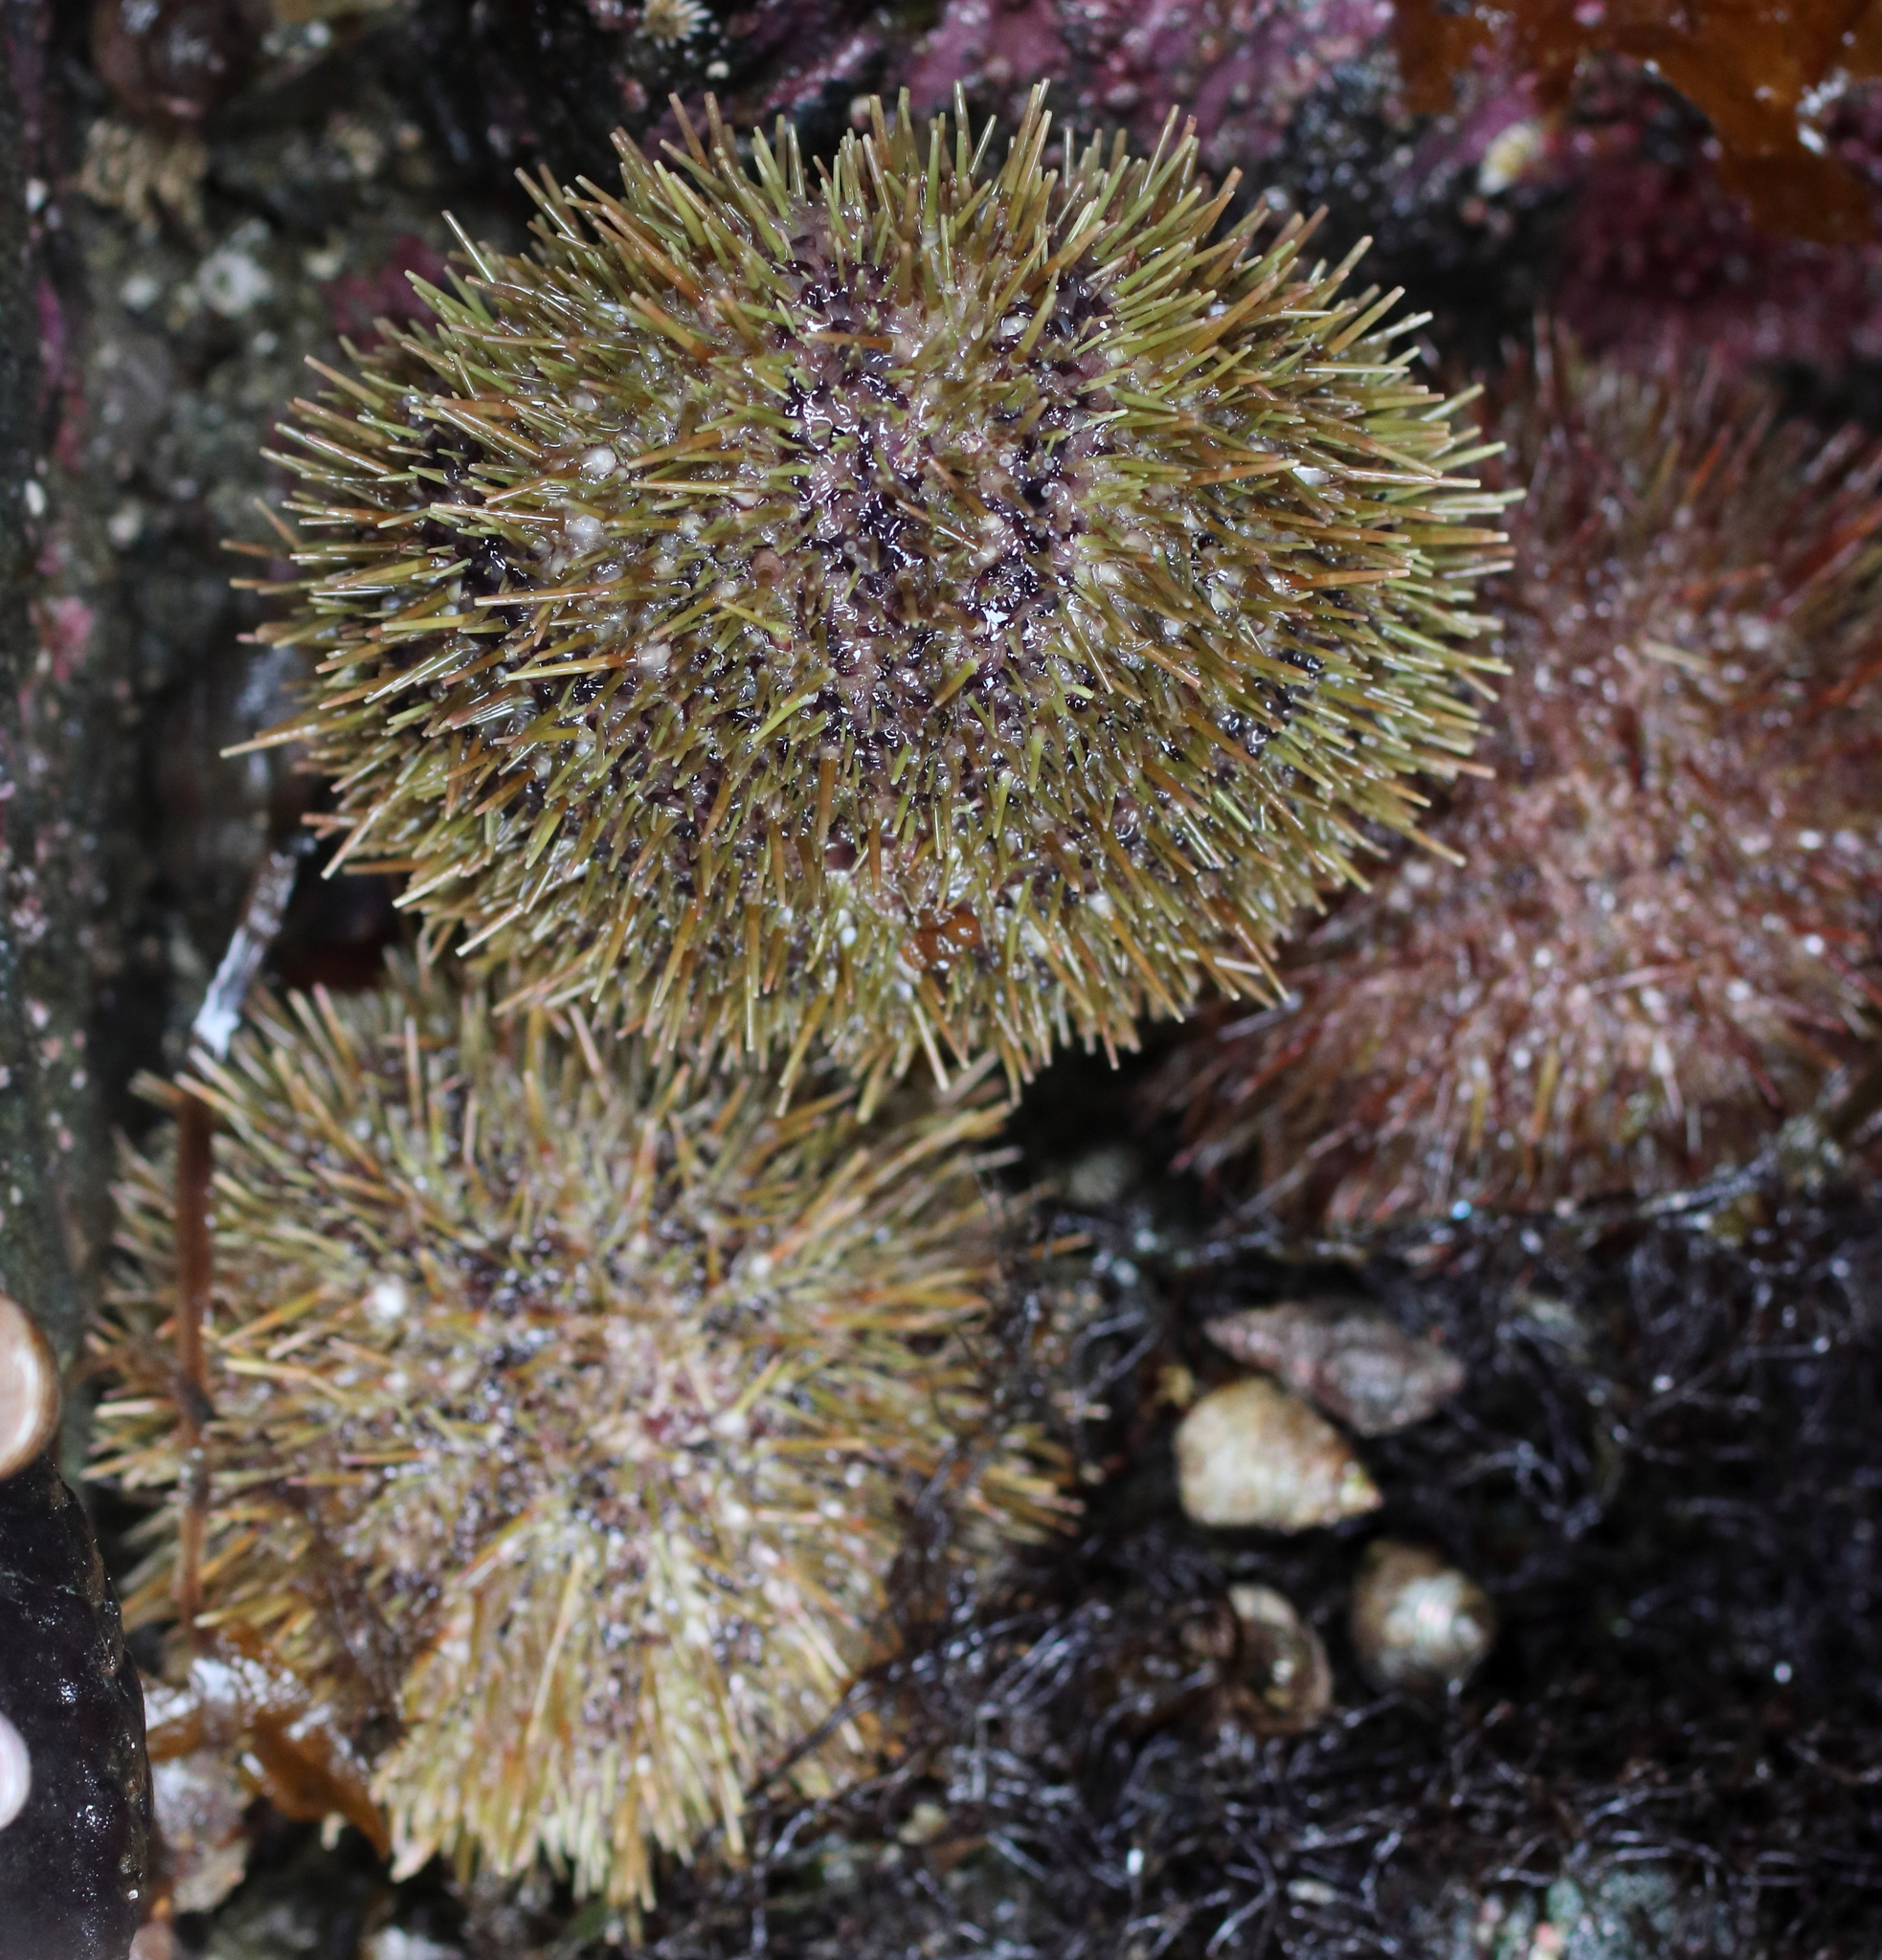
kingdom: Animalia
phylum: Echinodermata
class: Echinoidea
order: Camarodonta
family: Strongylocentrotidae
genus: Strongylocentrotus
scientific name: Strongylocentrotus droebachiensis
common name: Northern sea urchin
